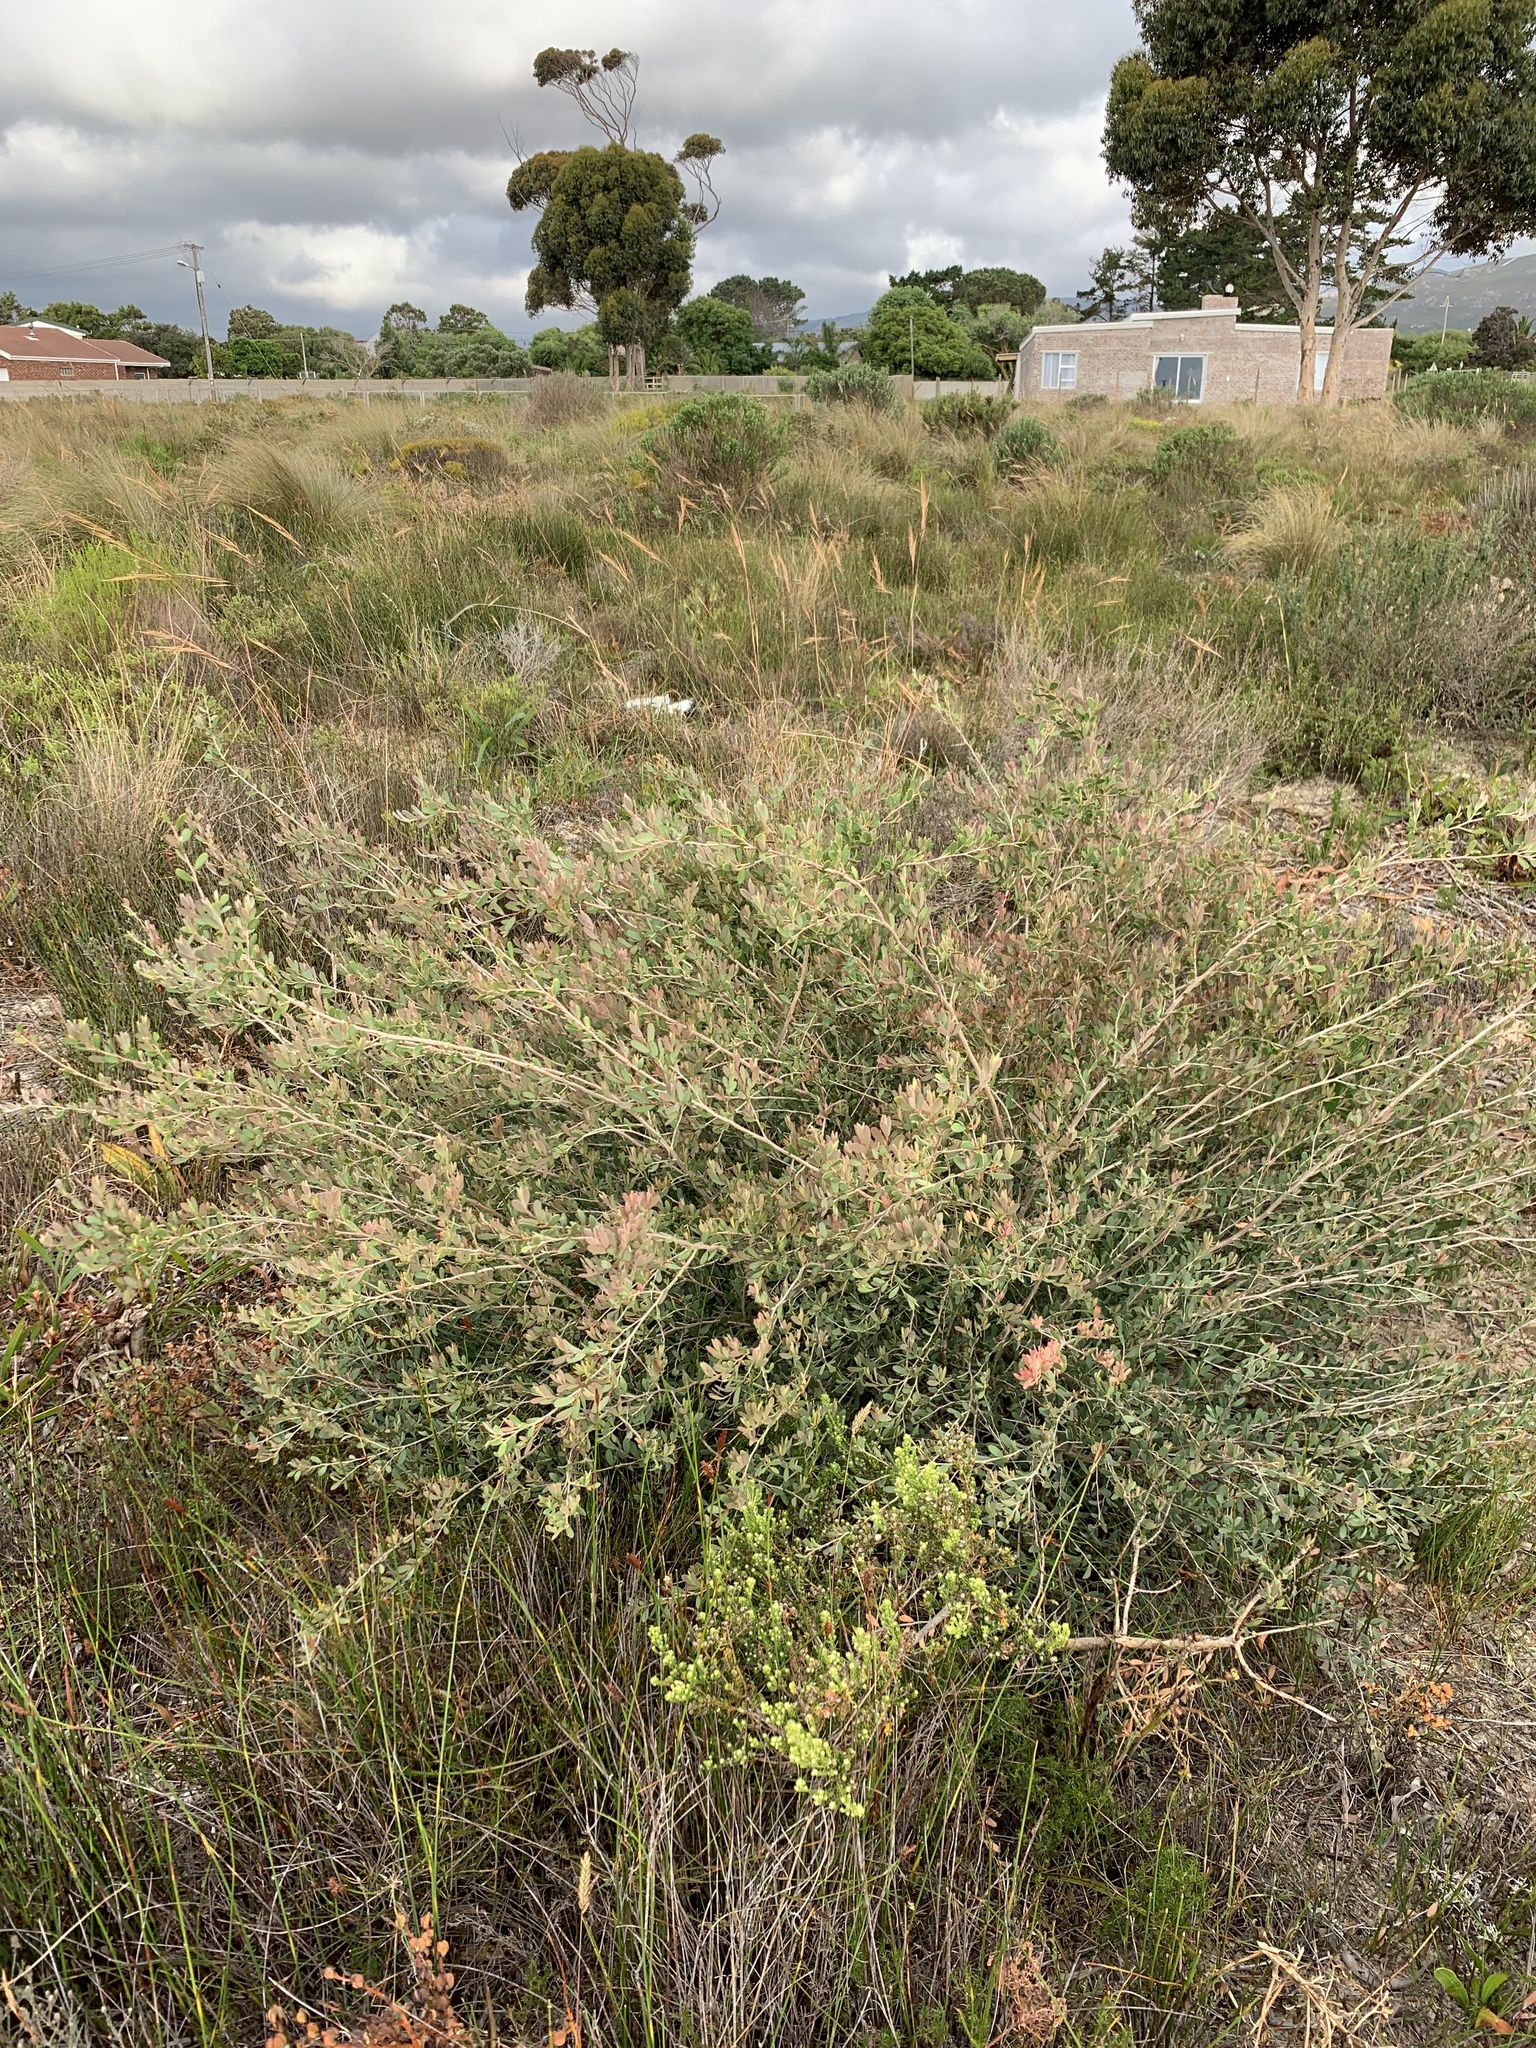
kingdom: Plantae
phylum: Tracheophyta
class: Magnoliopsida
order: Myrtales
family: Myrtaceae
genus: Leptospermum
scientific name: Leptospermum laevigatum
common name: Australian teatree
